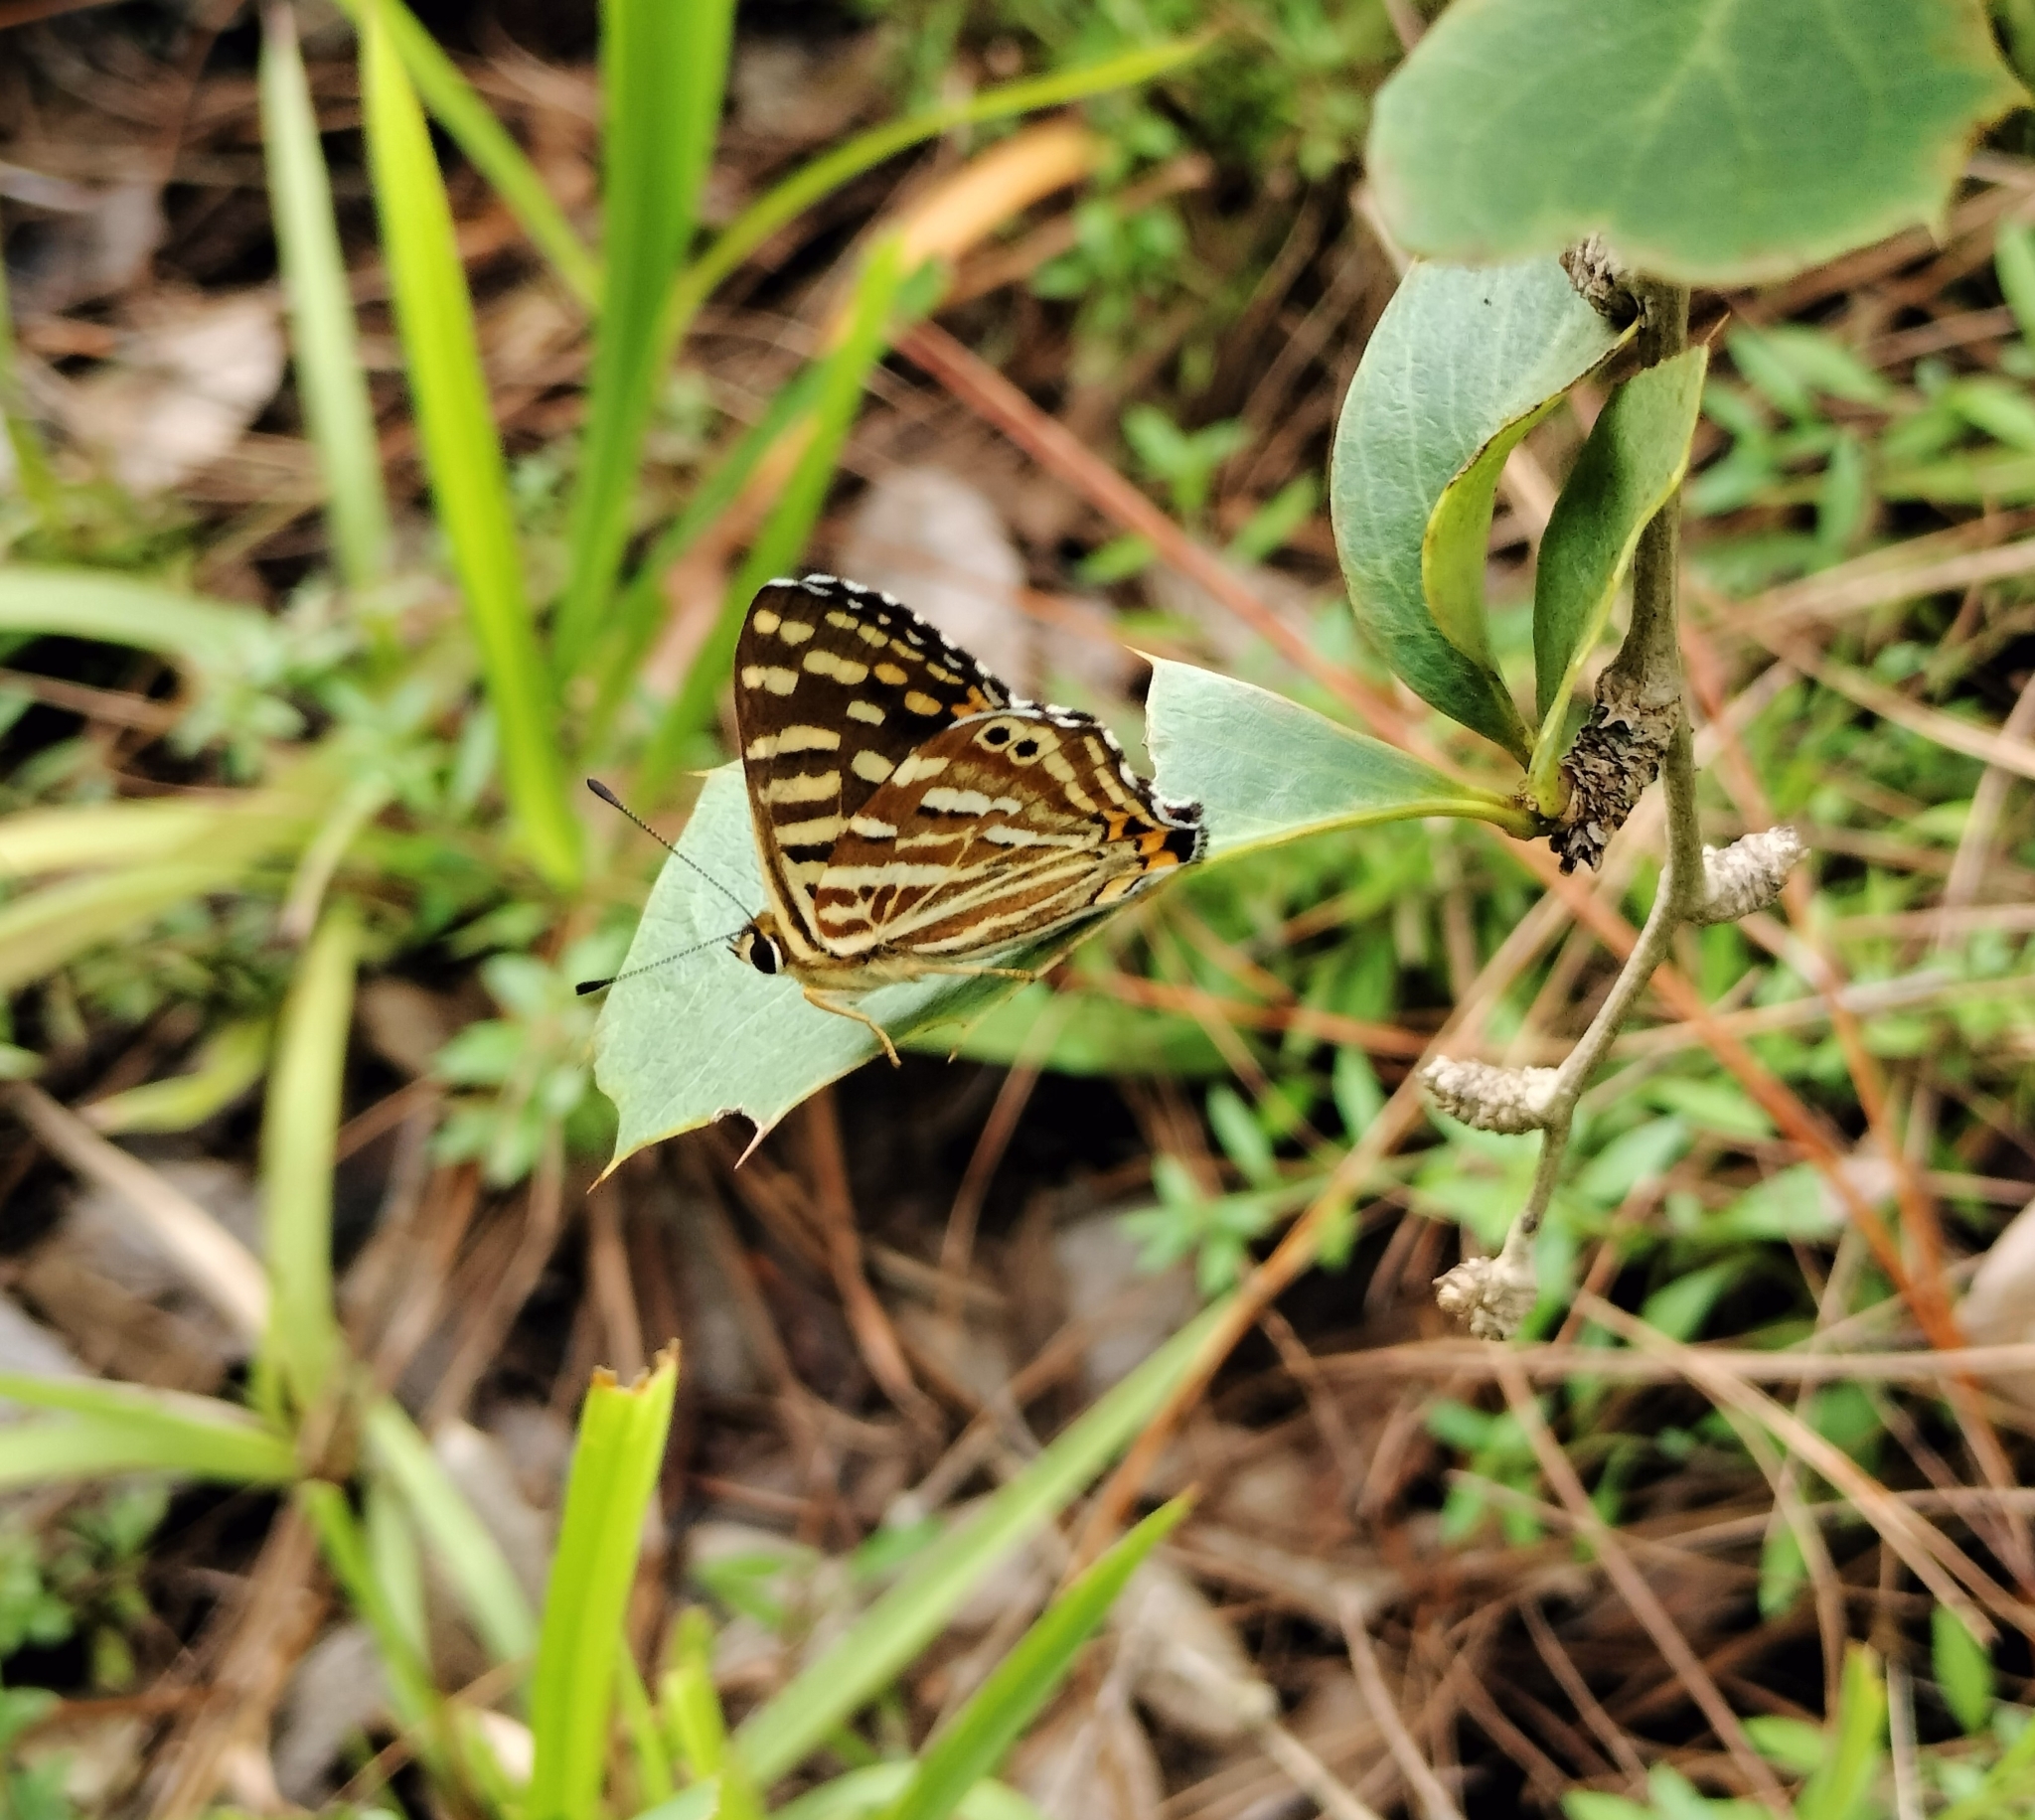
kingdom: Animalia
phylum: Arthropoda
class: Insecta
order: Lepidoptera
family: Lycaenidae
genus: Dodona
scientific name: Dodona durga
